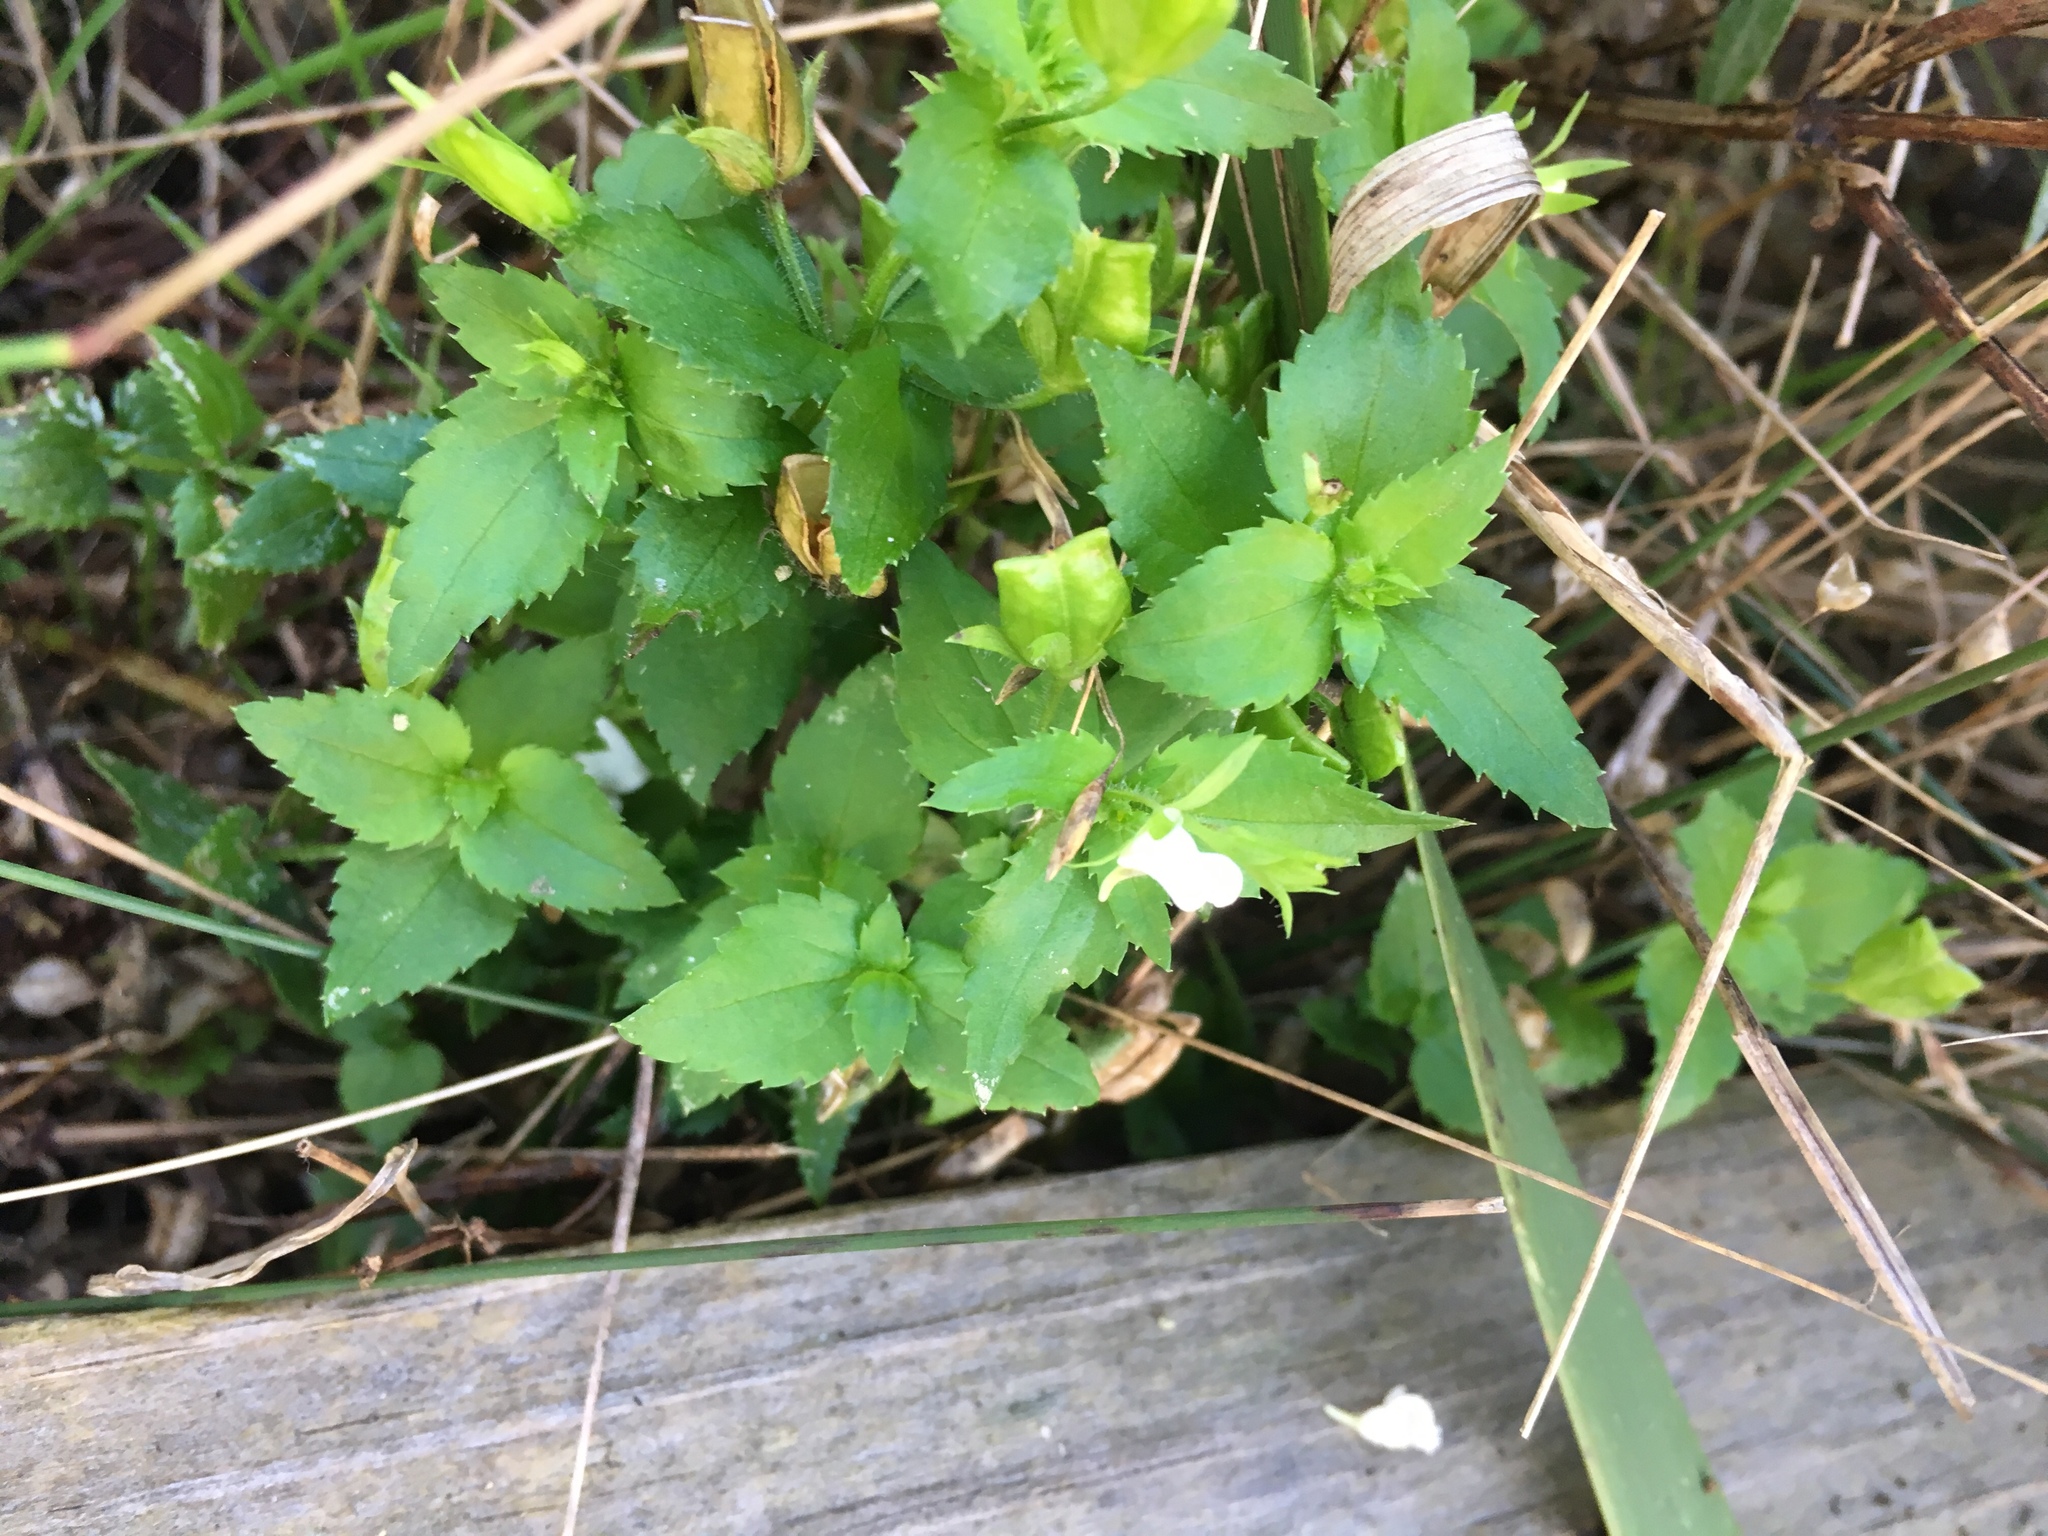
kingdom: Plantae
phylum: Tracheophyta
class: Magnoliopsida
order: Lamiales
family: Scrophulariaceae
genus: Nemesia
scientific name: Nemesia macrocarpa
